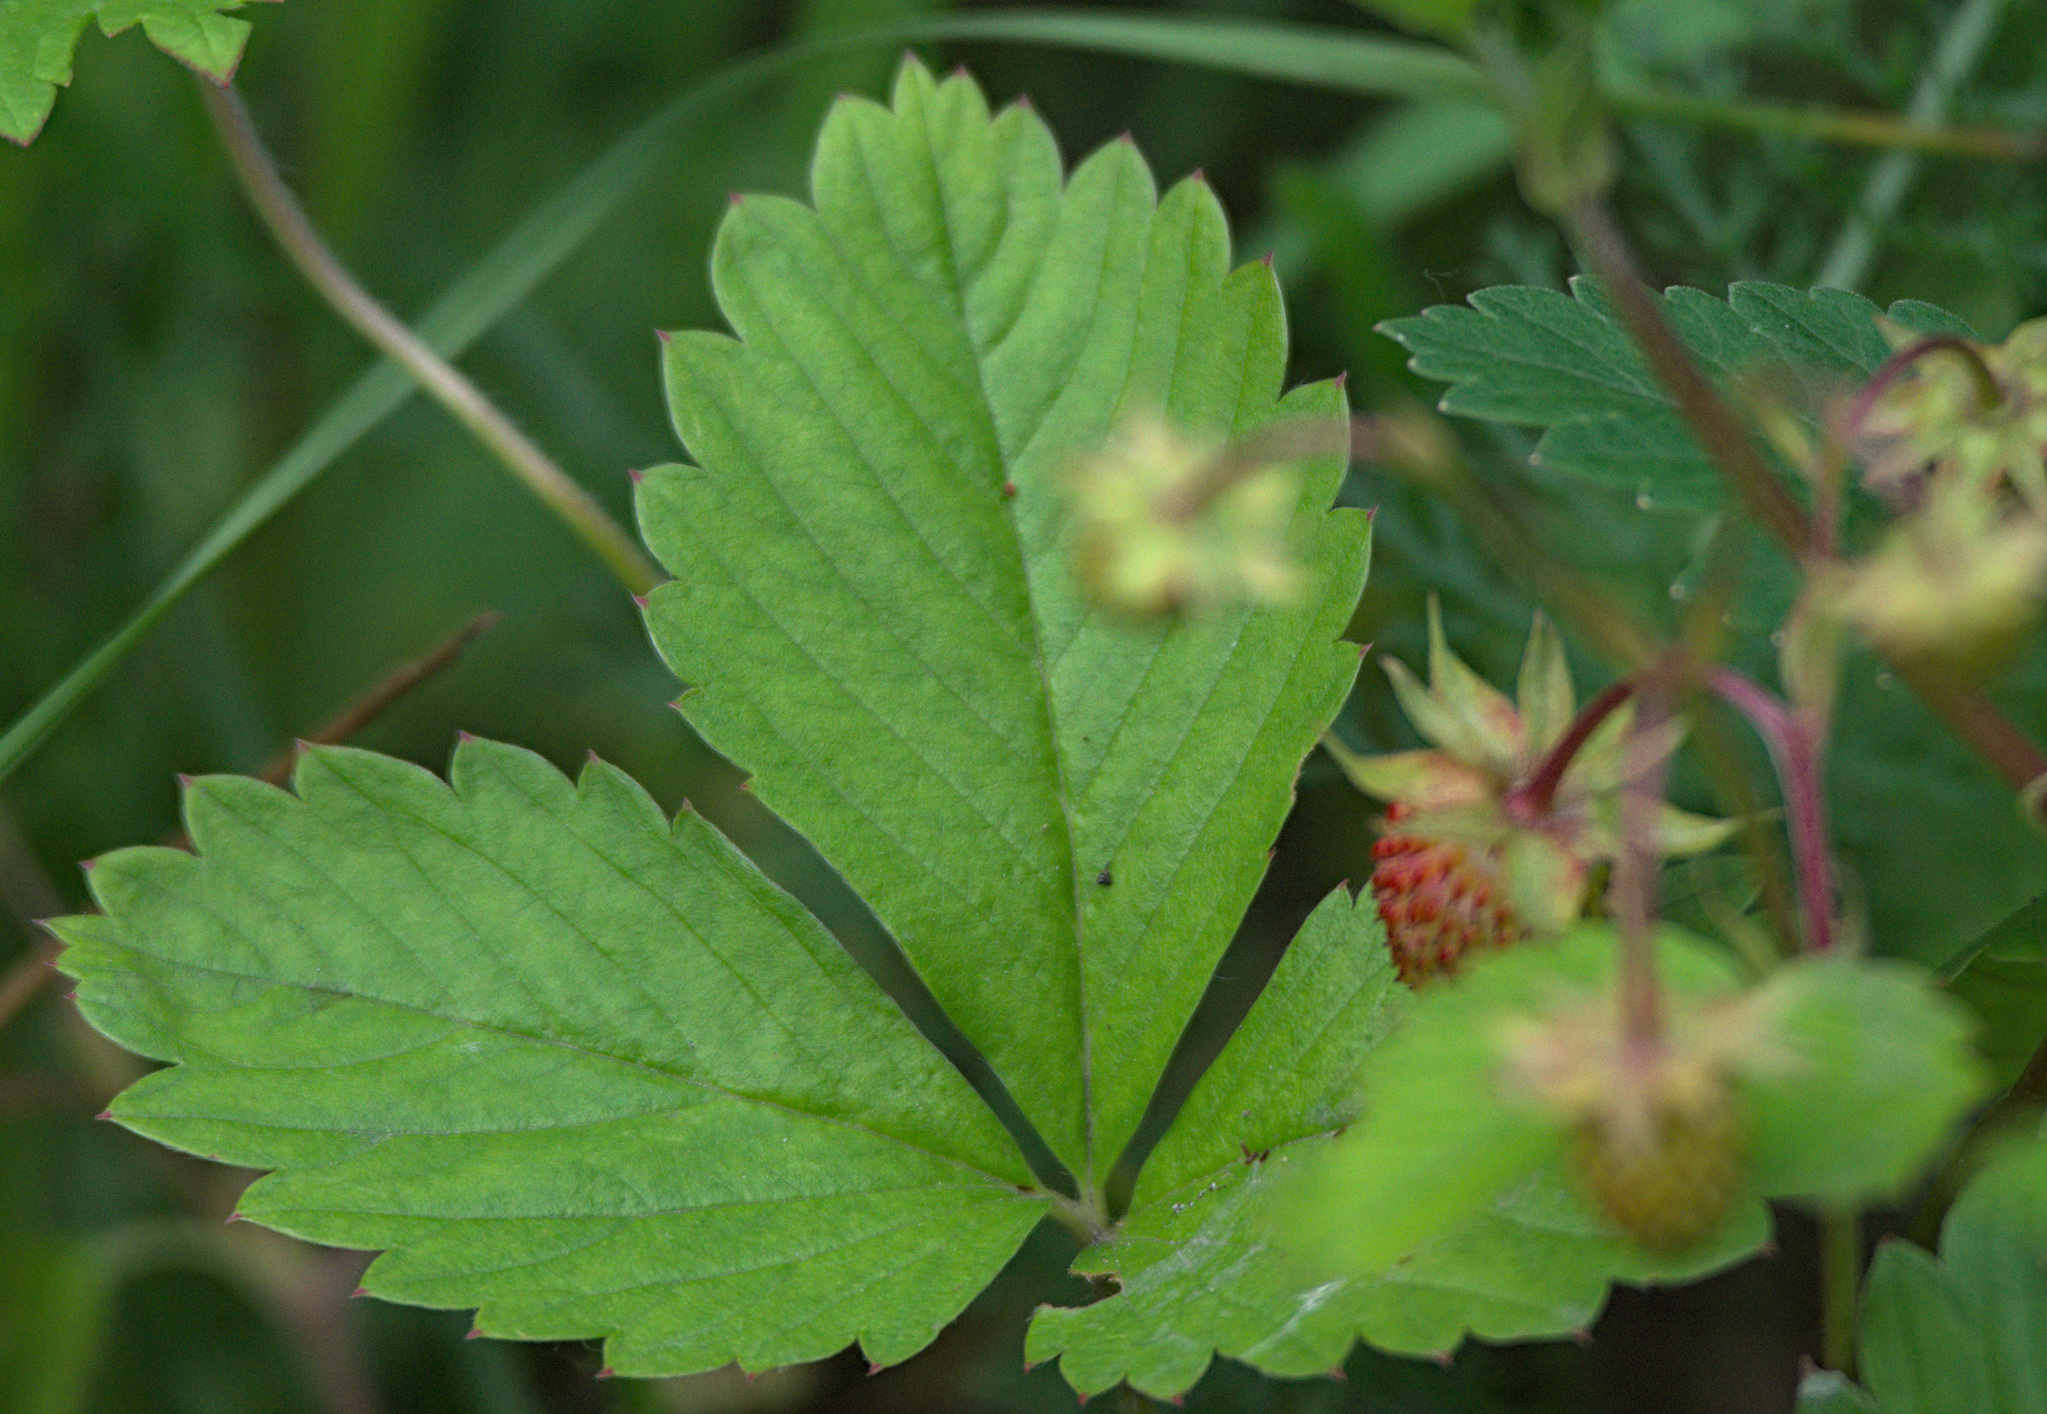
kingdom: Plantae
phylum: Tracheophyta
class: Magnoliopsida
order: Rosales
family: Rosaceae
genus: Fragaria
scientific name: Fragaria vesca
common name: Wild strawberry
